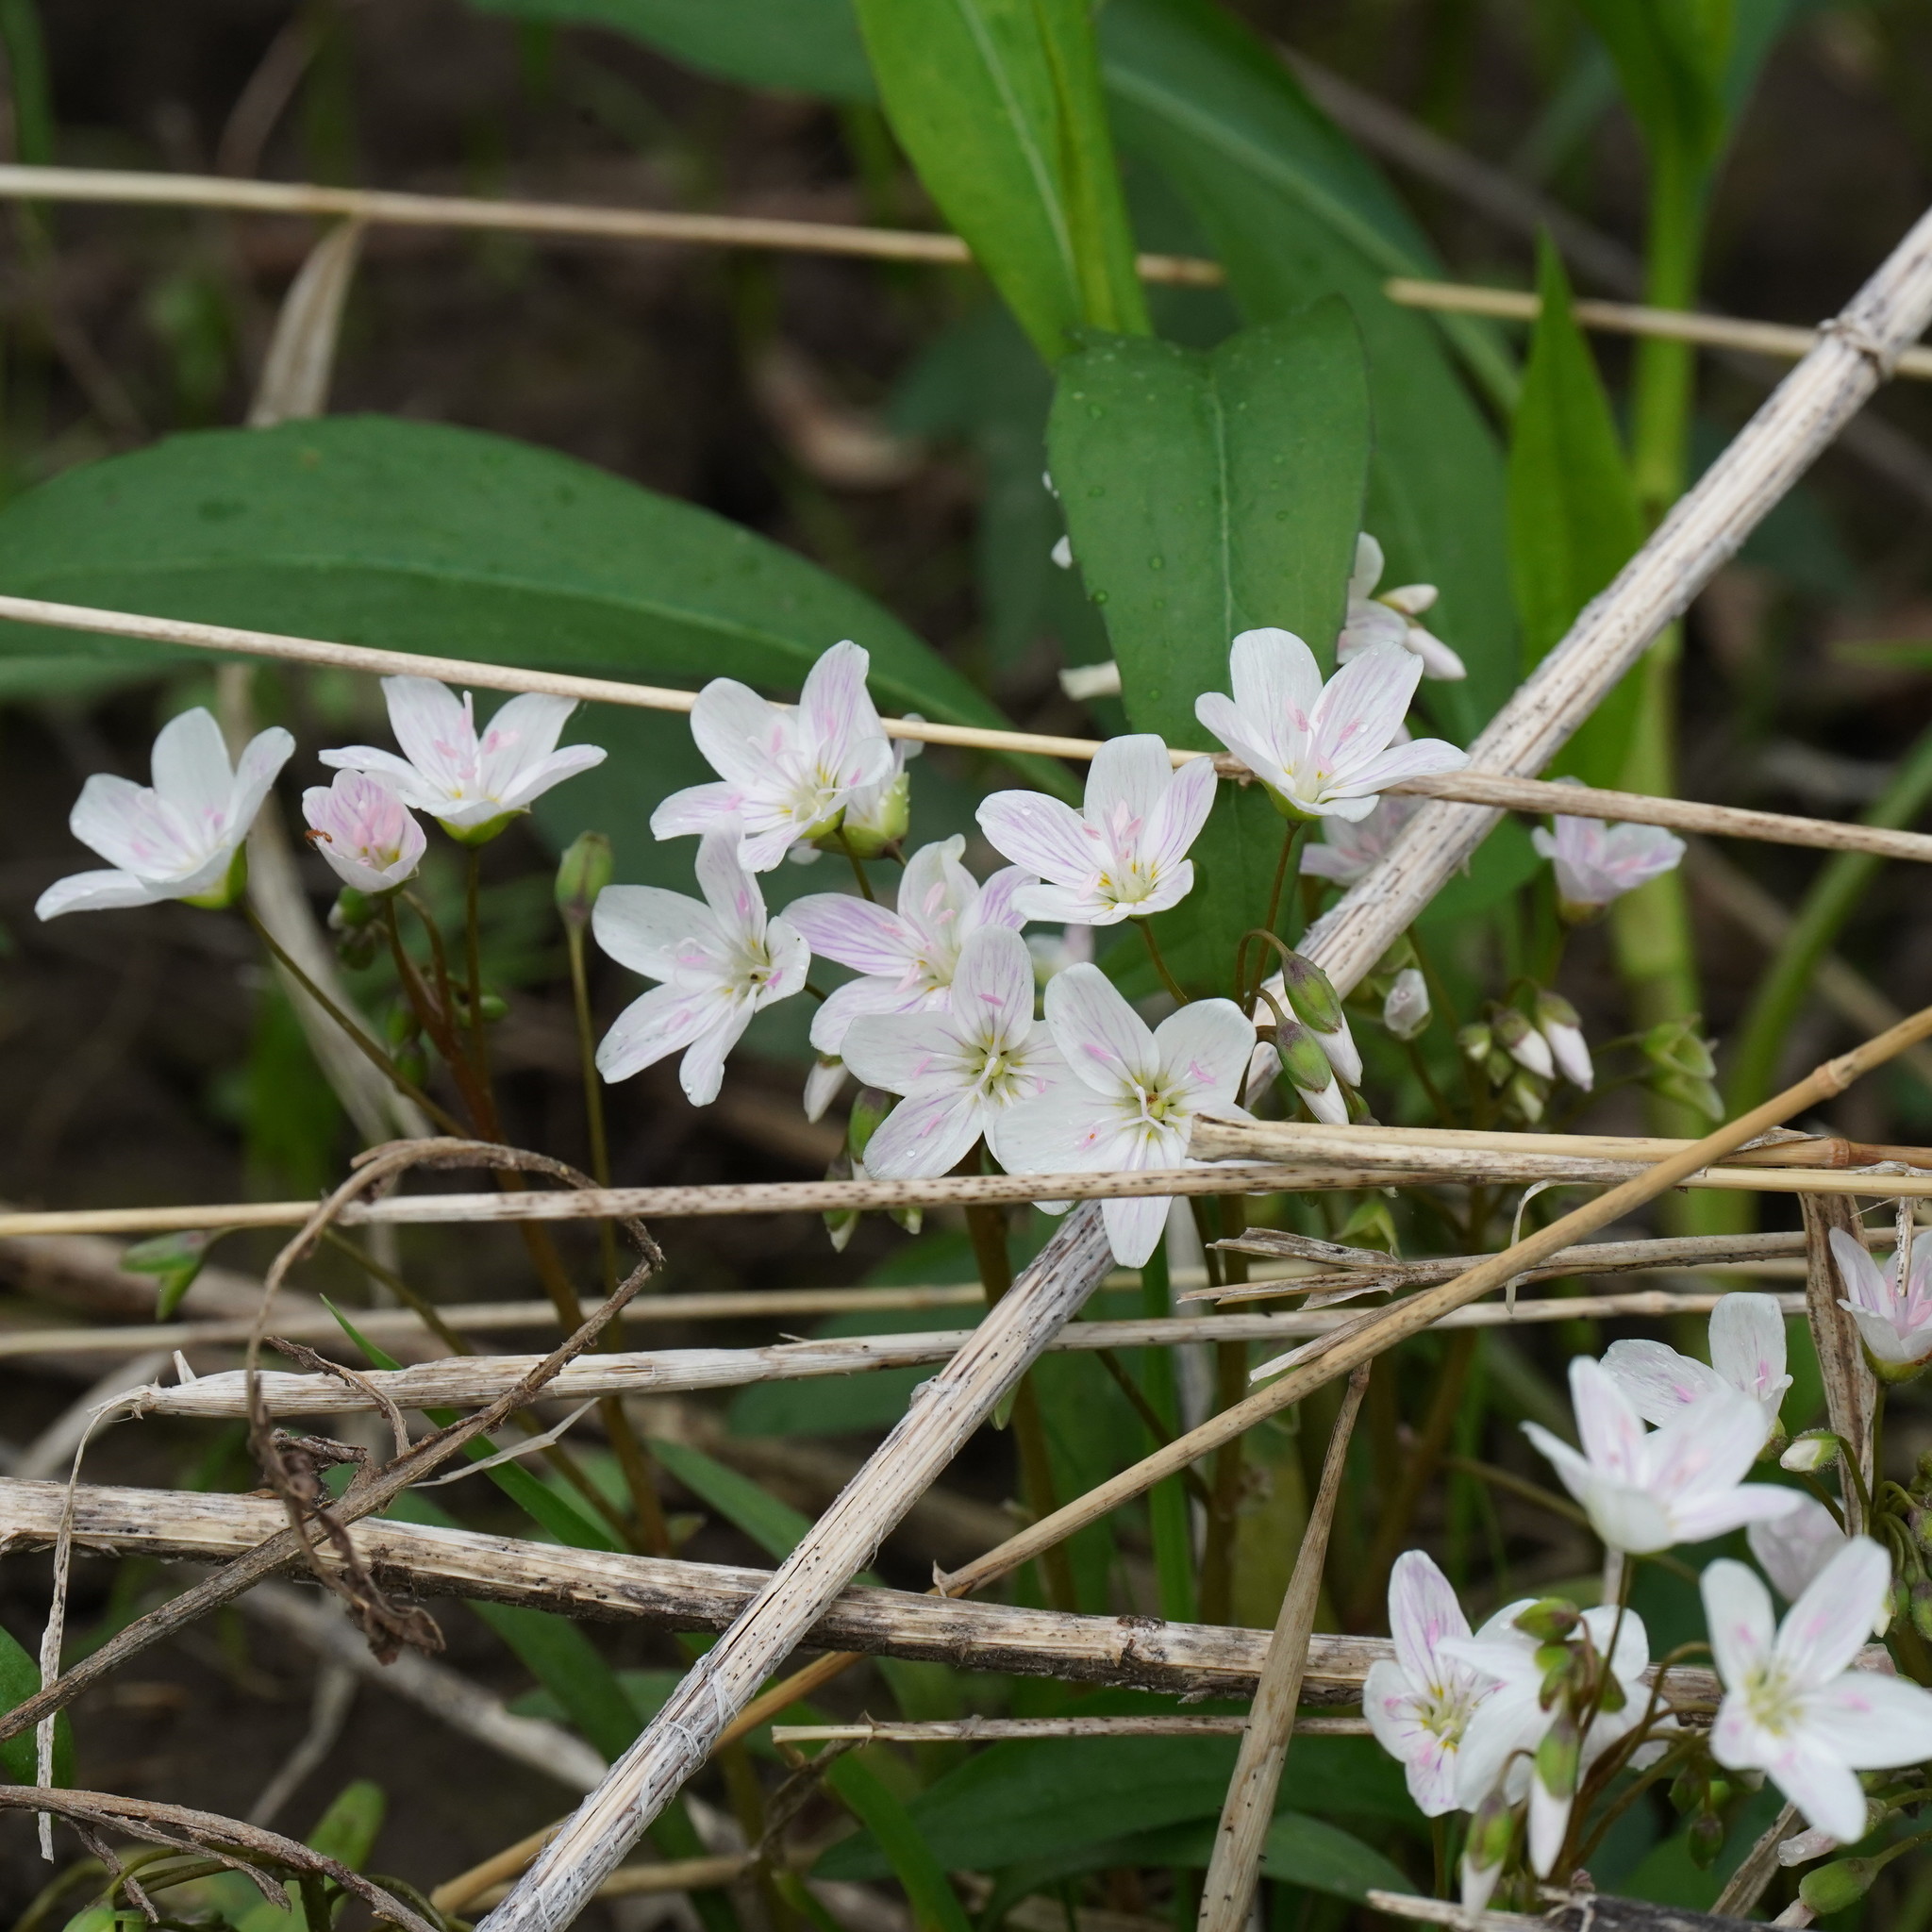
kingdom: Plantae
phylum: Tracheophyta
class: Magnoliopsida
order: Caryophyllales
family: Montiaceae
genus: Claytonia
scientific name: Claytonia virginica
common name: Virginia springbeauty
